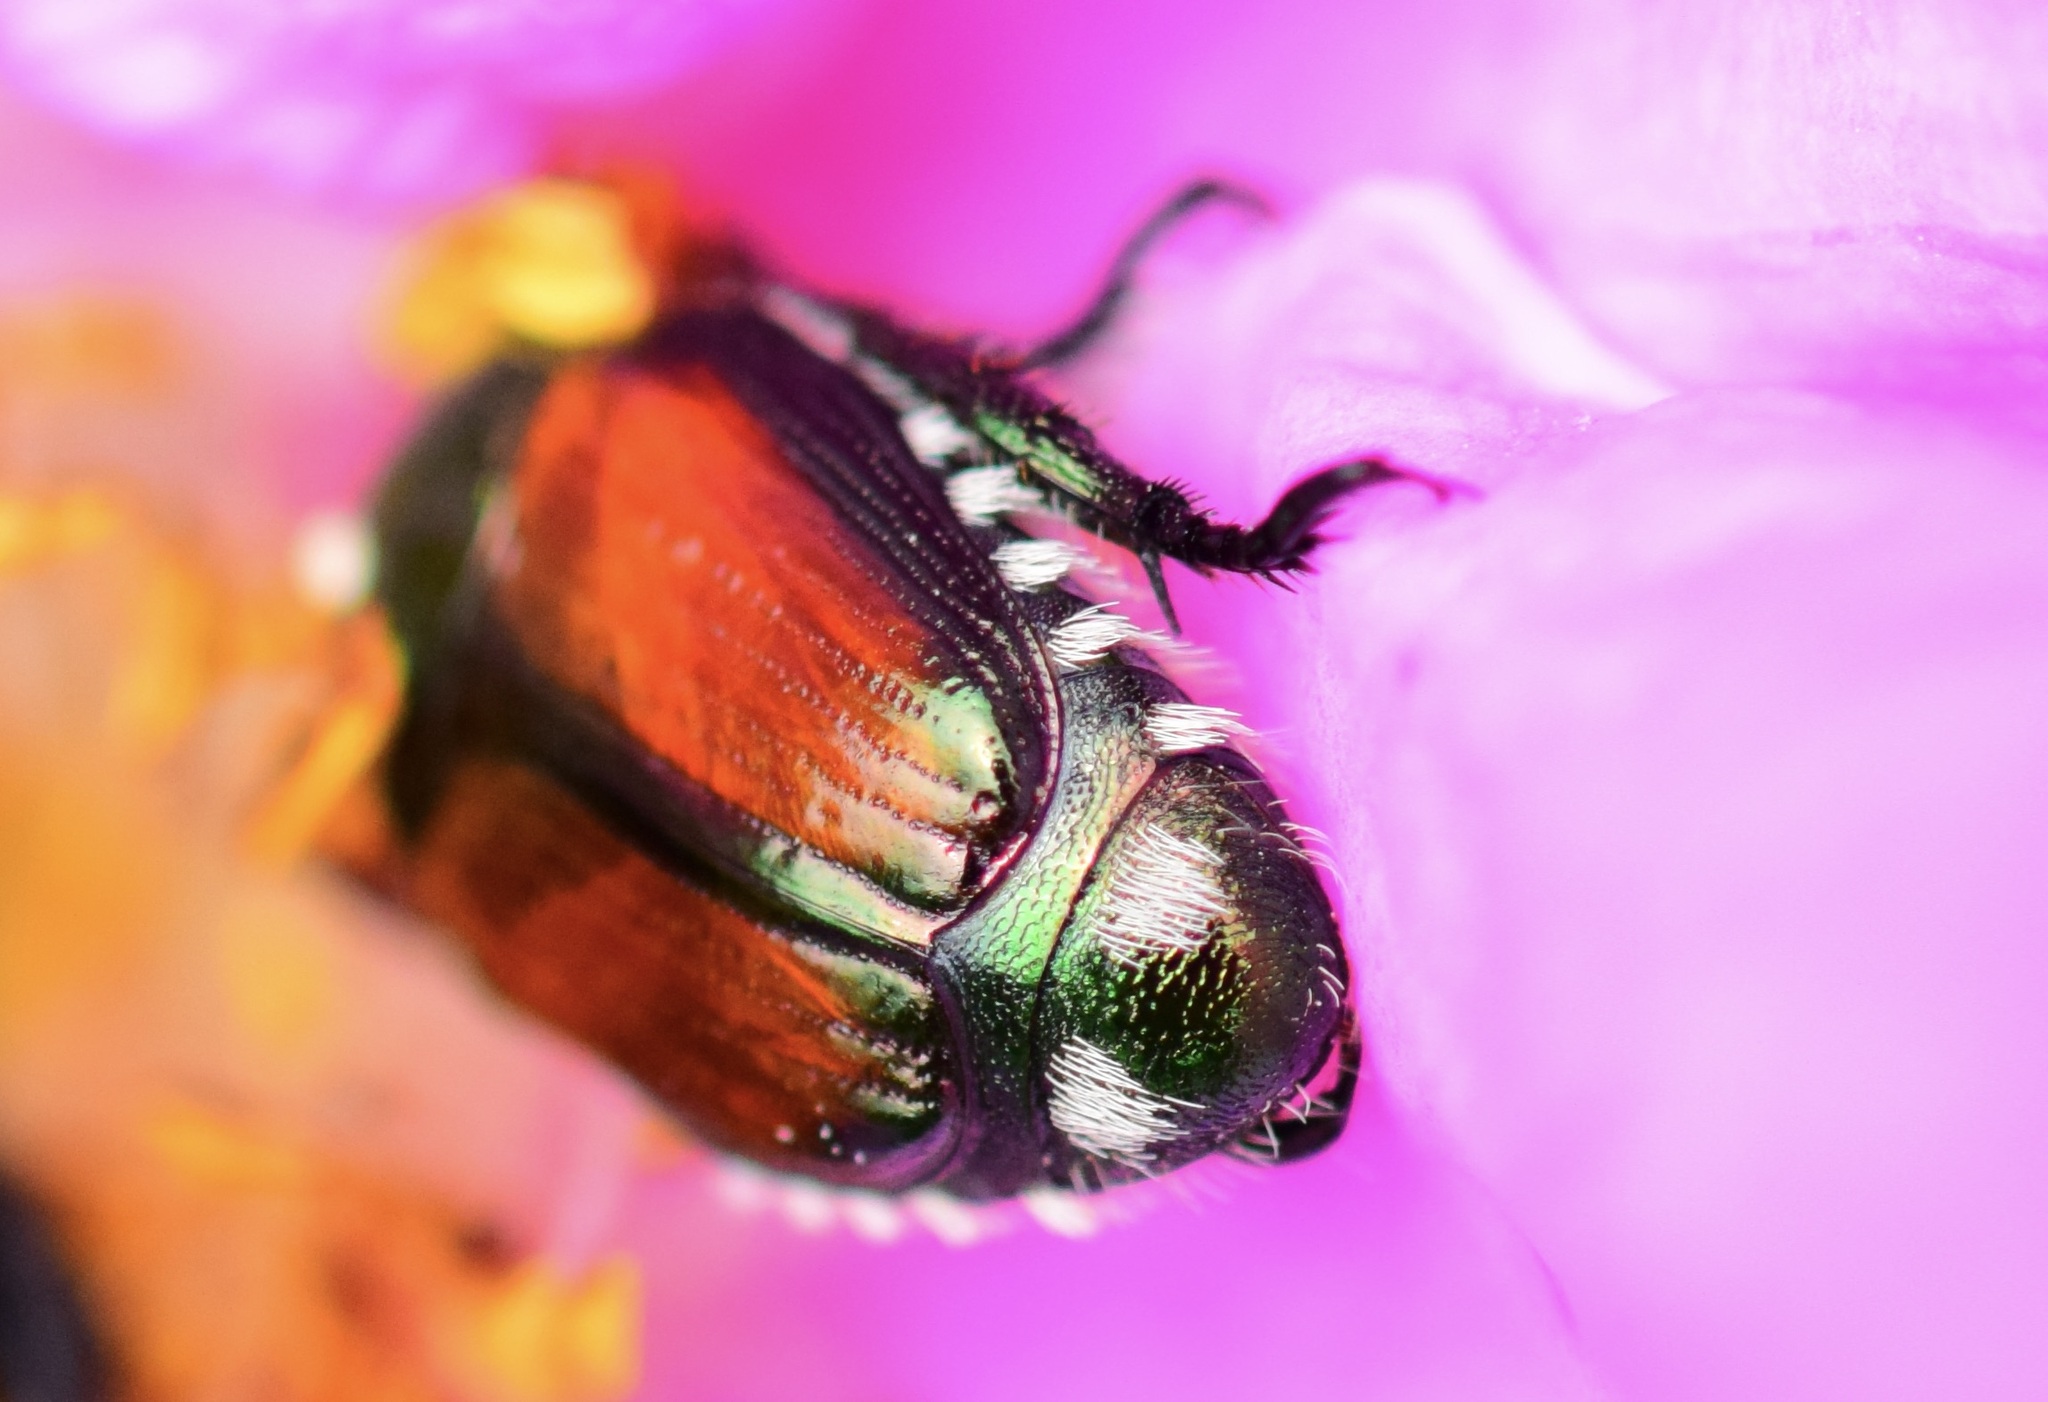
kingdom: Animalia
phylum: Arthropoda
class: Insecta
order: Coleoptera
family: Scarabaeidae
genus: Popillia
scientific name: Popillia japonica
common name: Japanese beetle
